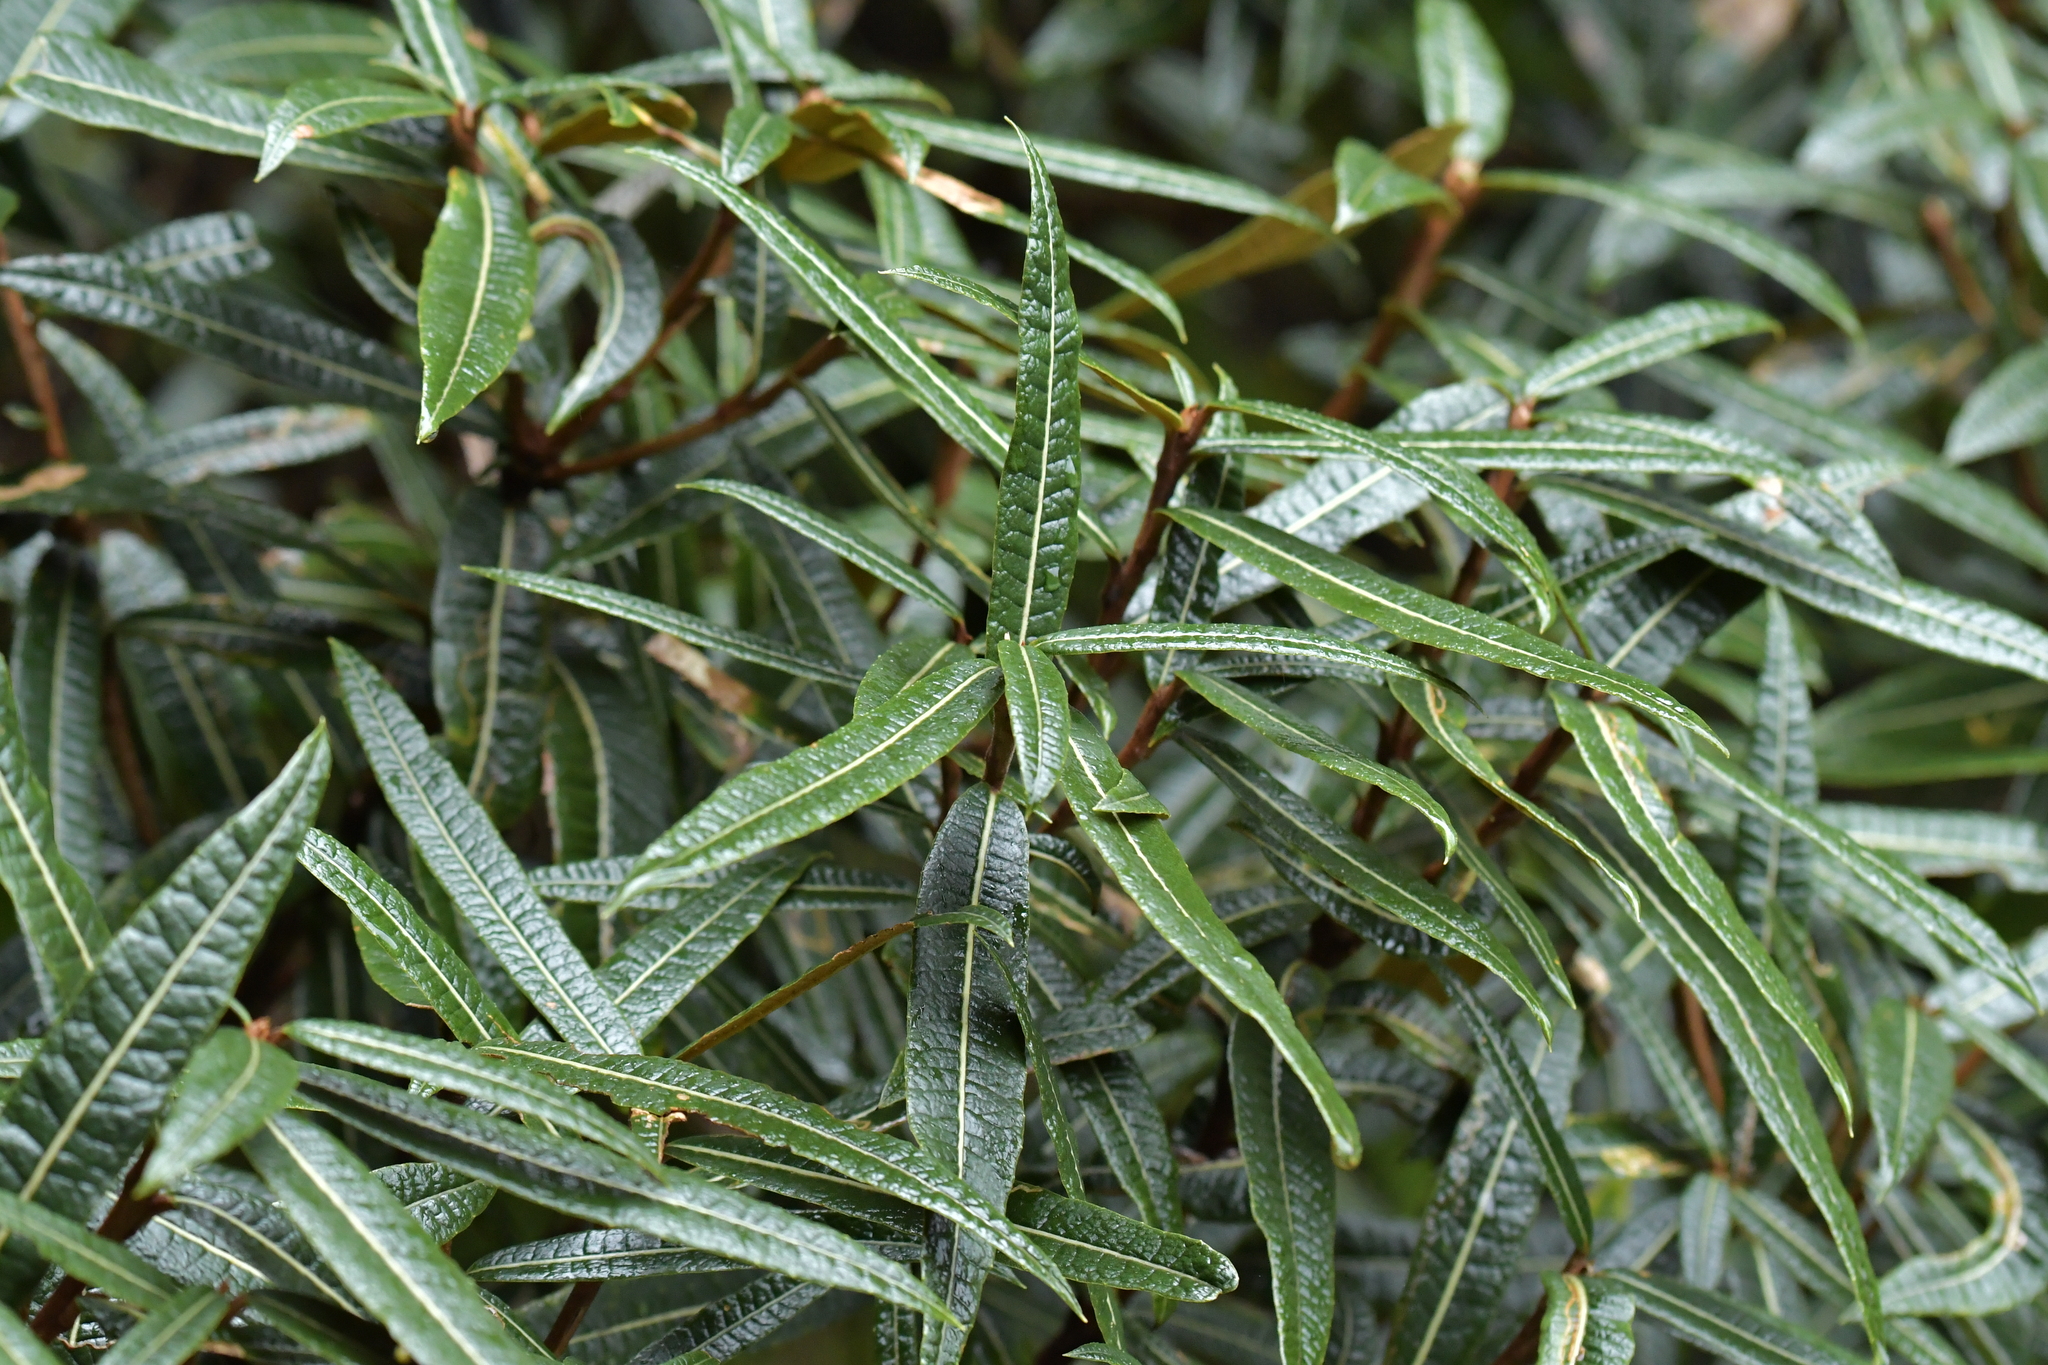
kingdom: Plantae
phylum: Tracheophyta
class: Magnoliopsida
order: Asterales
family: Asteraceae
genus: Olearia
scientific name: Olearia lacunosa
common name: Lancewood tree daisy
